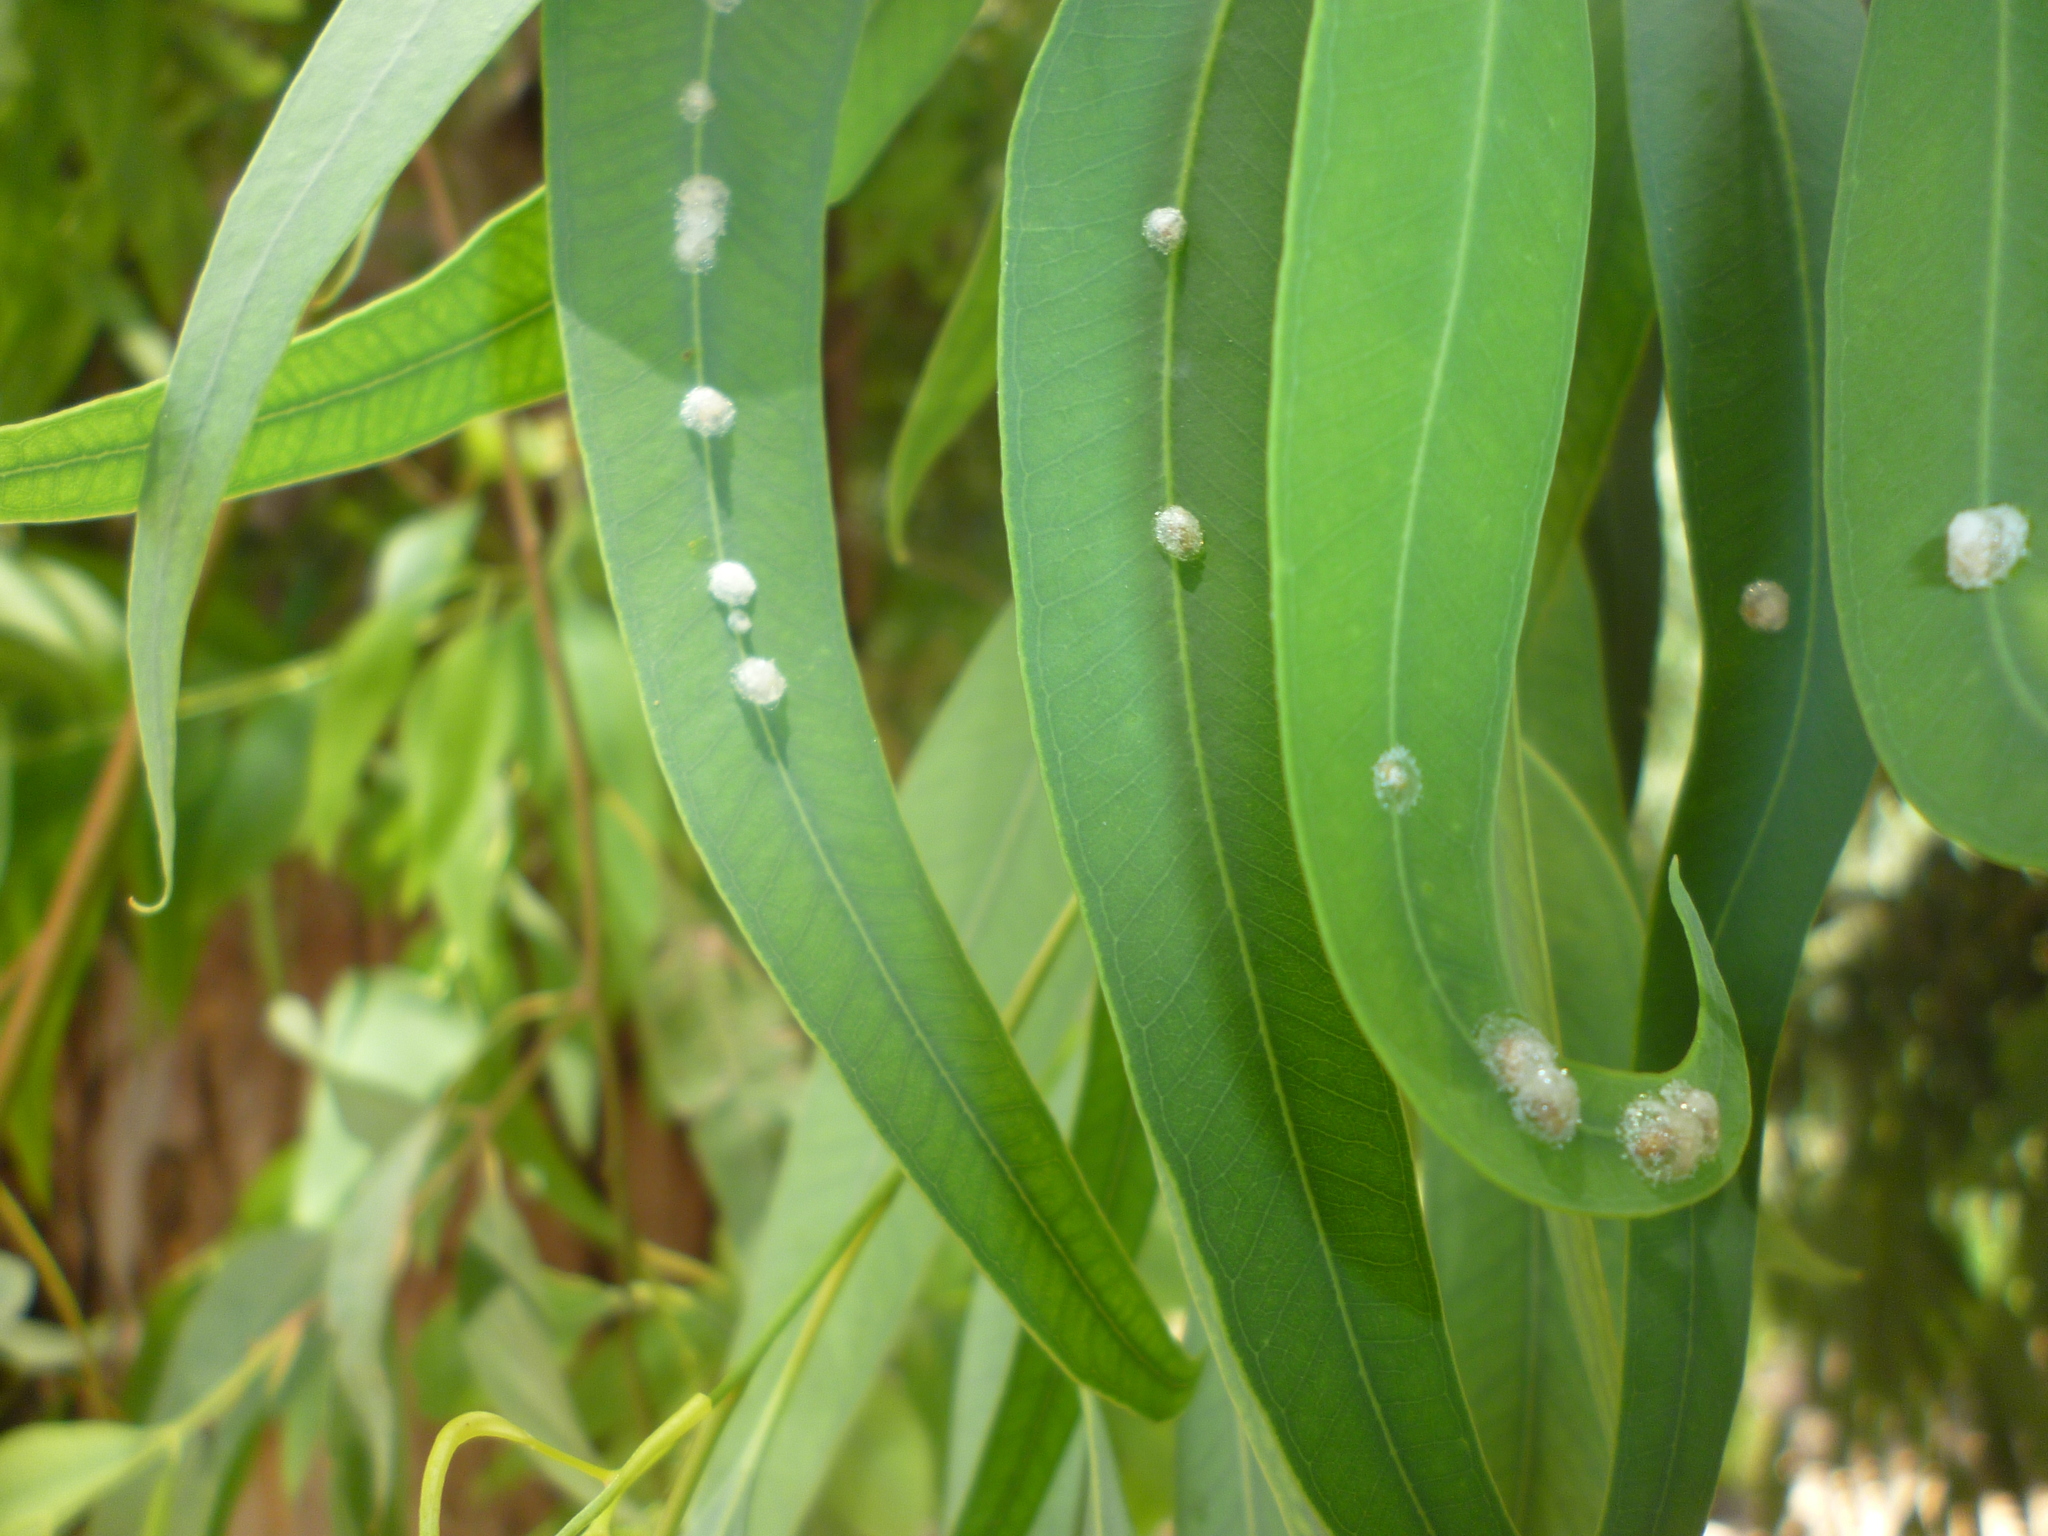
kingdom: Animalia
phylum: Arthropoda
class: Insecta
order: Hemiptera
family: Aphalaridae
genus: Glycaspis
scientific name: Glycaspis brimblecombei
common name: Red gum lerp psyllid
